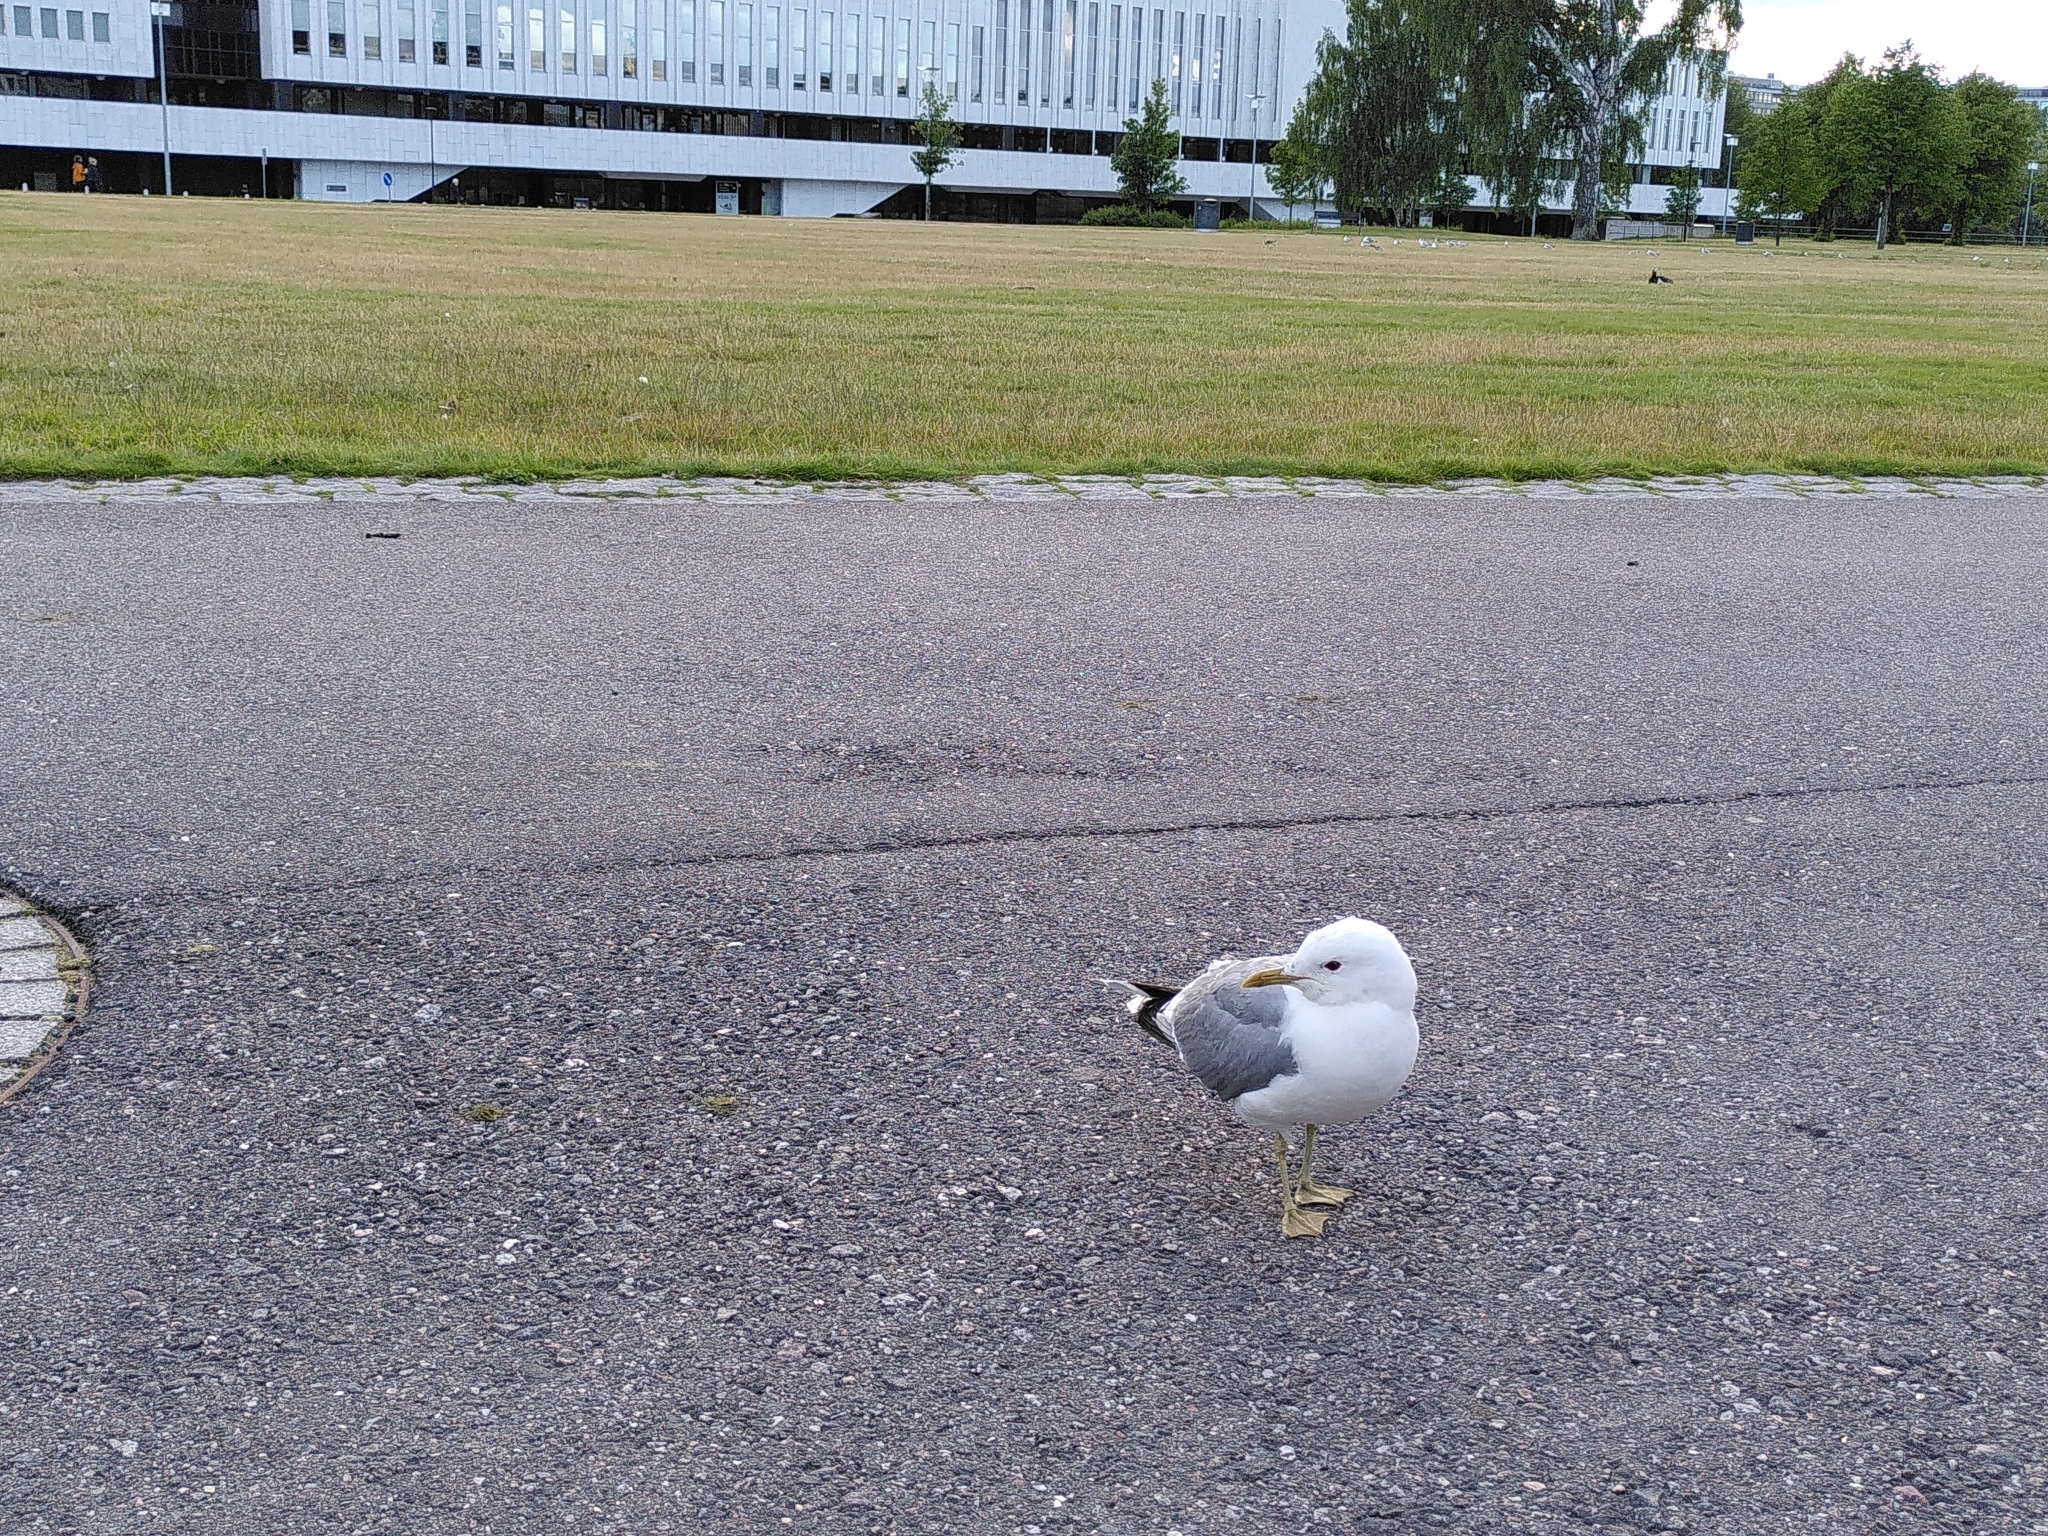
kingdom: Animalia
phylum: Chordata
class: Aves
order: Charadriiformes
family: Laridae
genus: Larus
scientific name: Larus canus
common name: Mew gull
